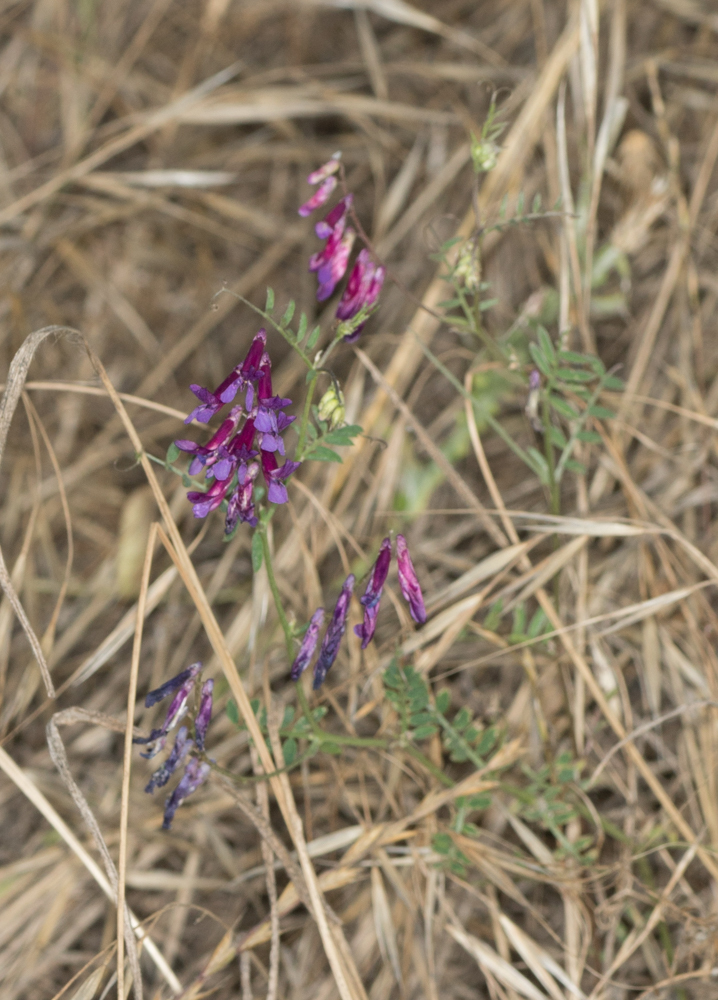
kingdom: Plantae
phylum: Tracheophyta
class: Magnoliopsida
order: Fabales
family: Fabaceae
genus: Vicia
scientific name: Vicia villosa
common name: Fodder vetch
